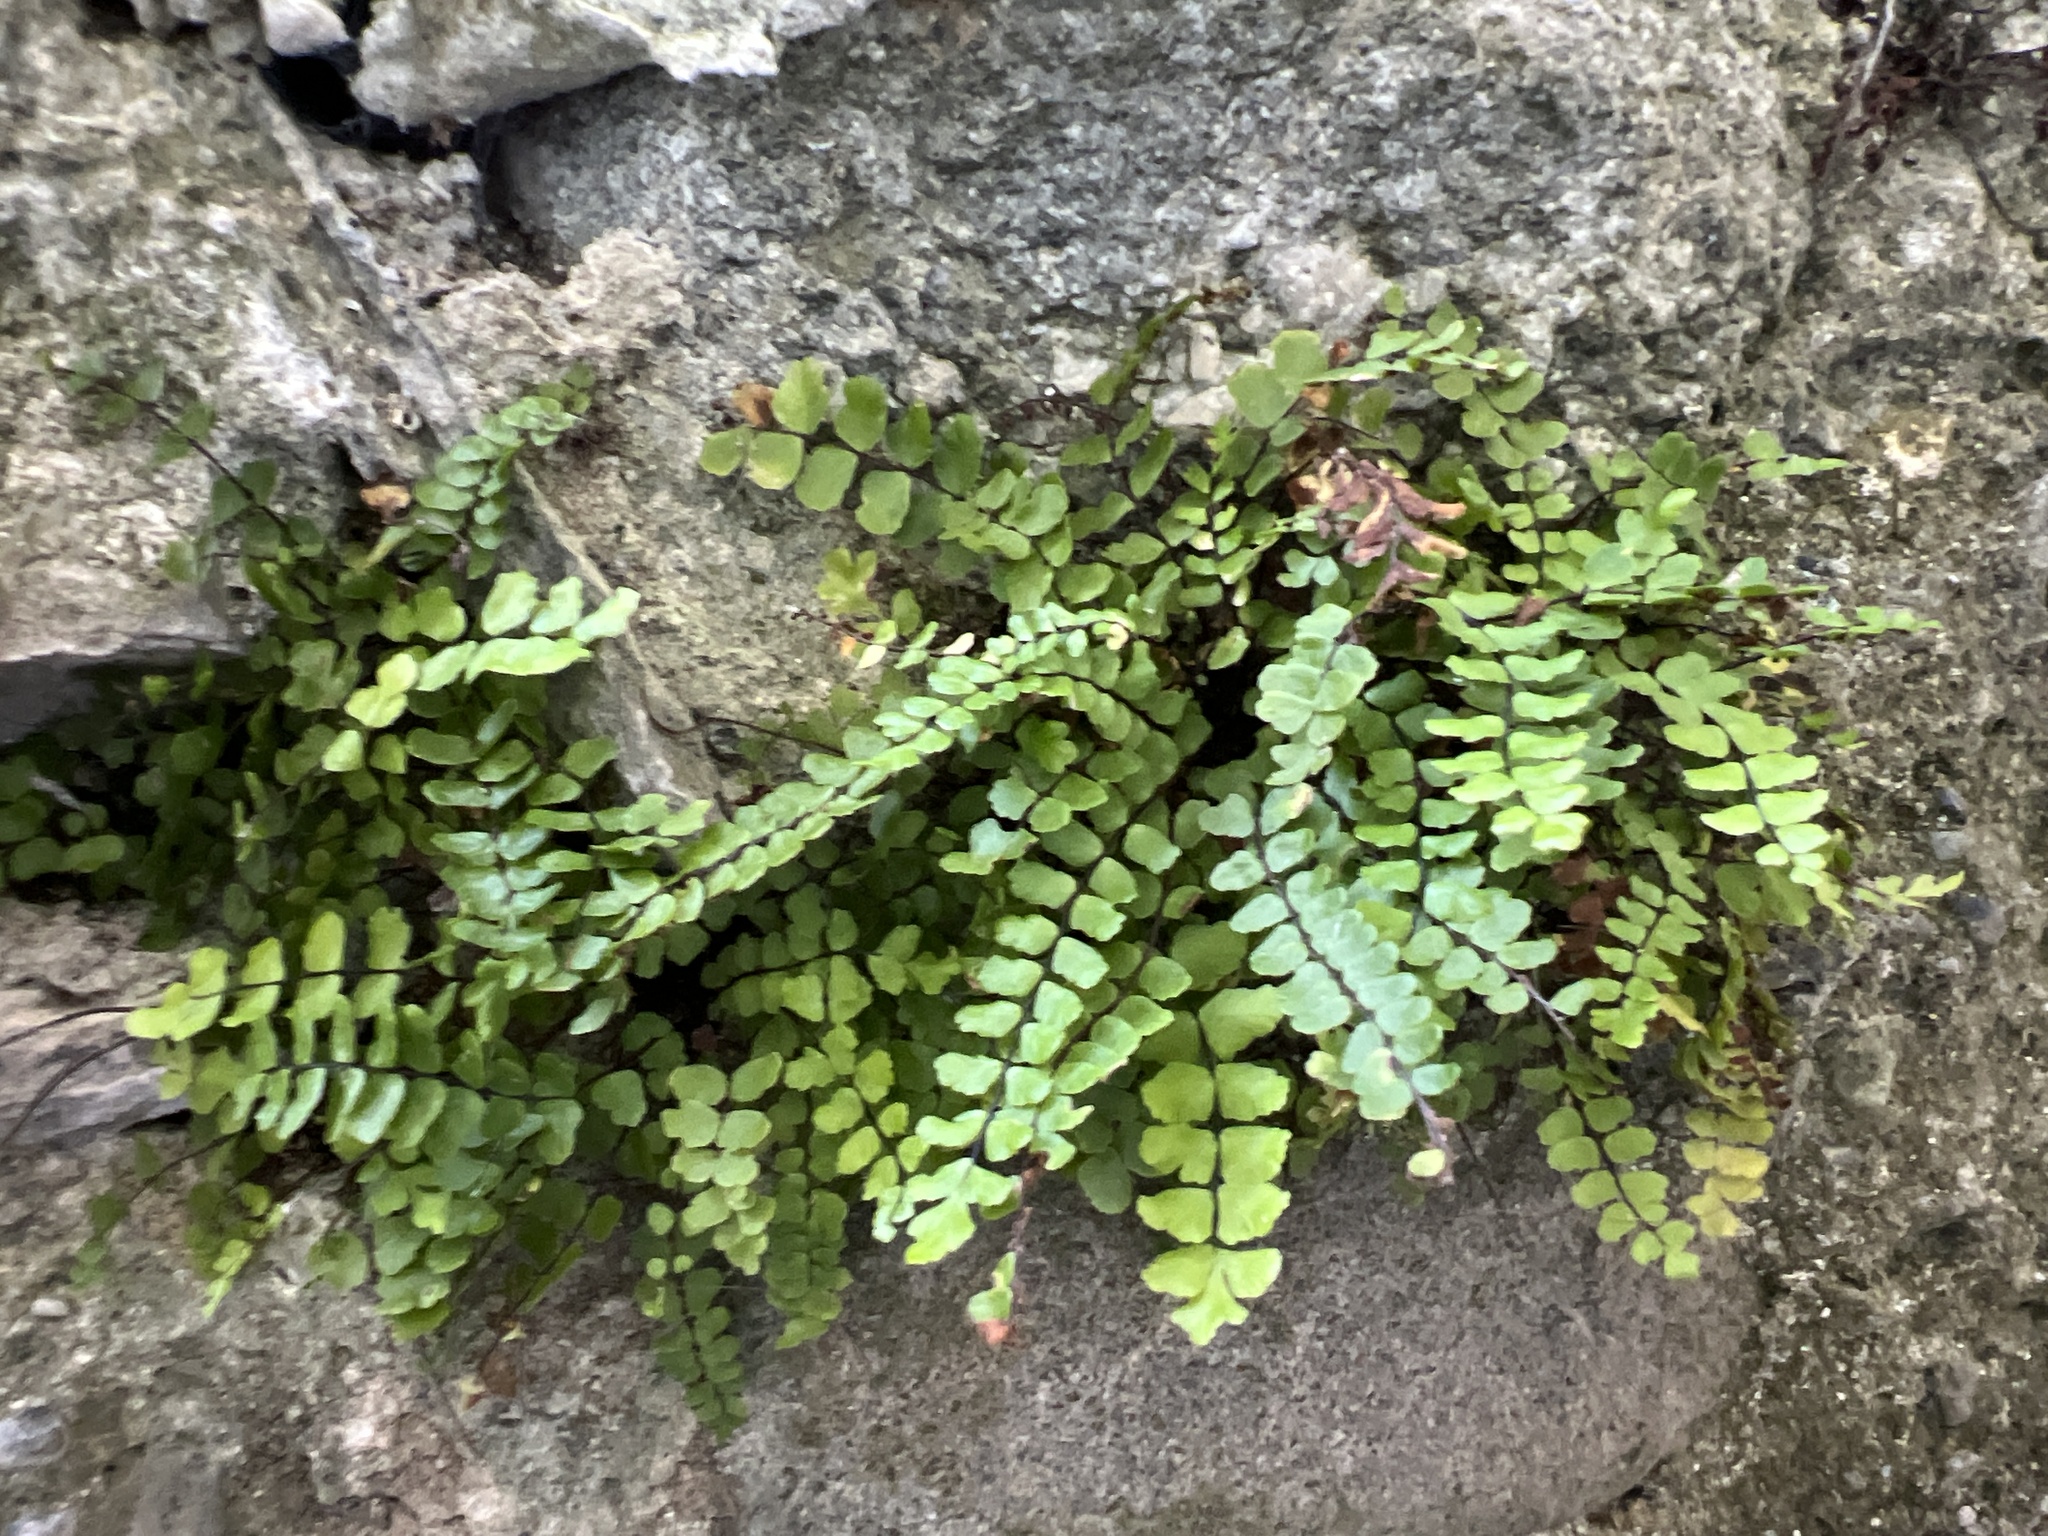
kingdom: Plantae
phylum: Tracheophyta
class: Polypodiopsida
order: Polypodiales
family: Aspleniaceae
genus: Asplenium
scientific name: Asplenium trichomanes
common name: Maidenhair spleenwort
